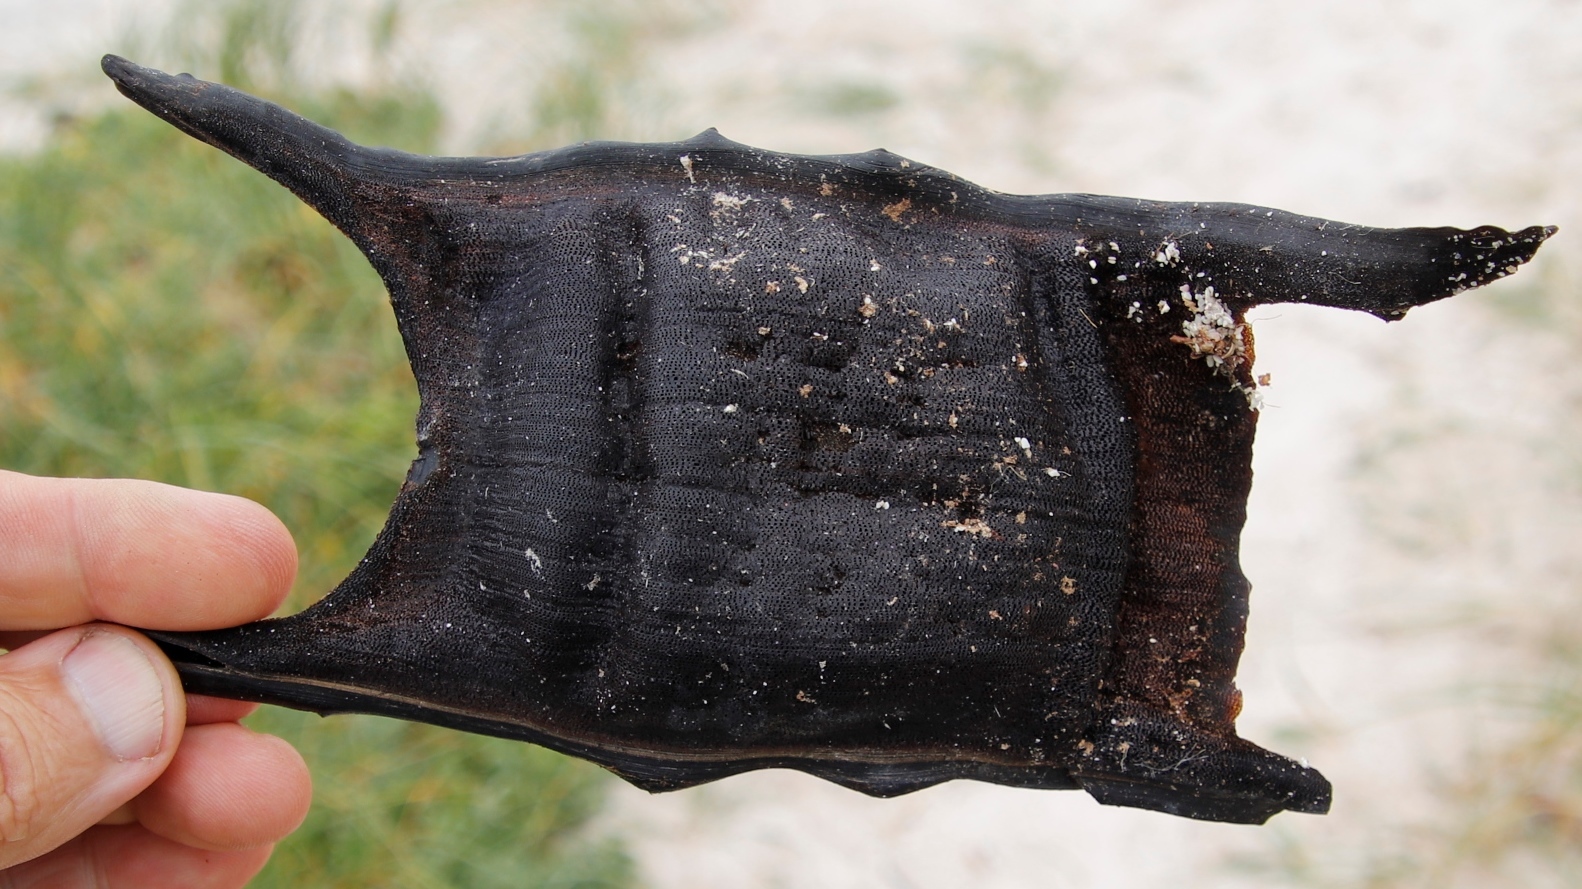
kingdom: Animalia
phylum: Chordata
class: Elasmobranchii
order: Rajiformes
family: Rajidae
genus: Rostroraja
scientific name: Rostroraja alba
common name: White skate
